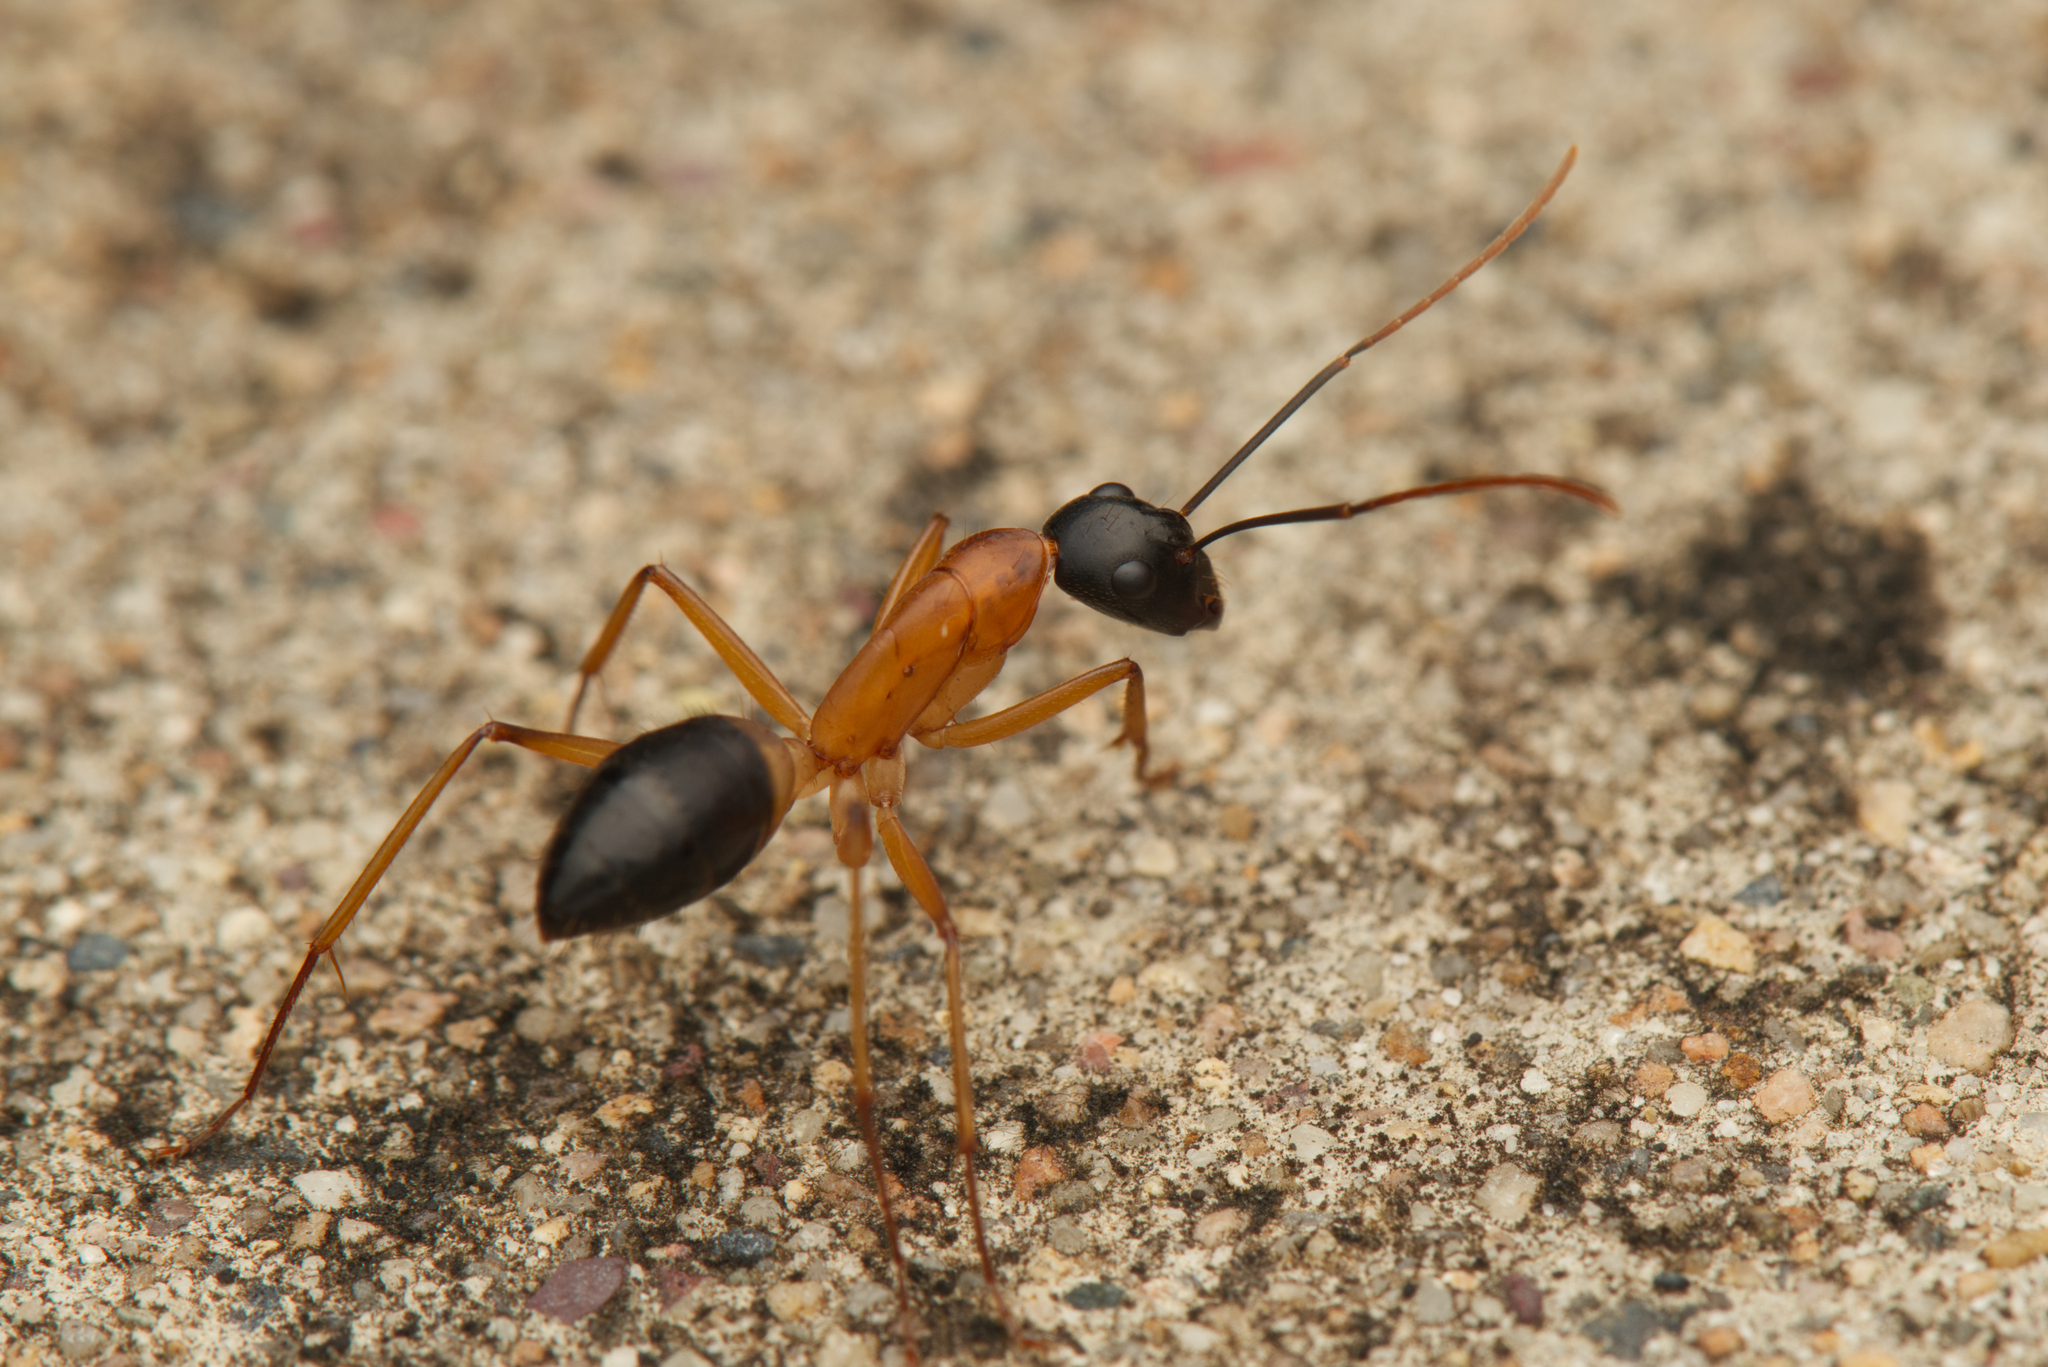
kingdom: Animalia
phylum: Arthropoda
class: Insecta
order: Hymenoptera
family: Formicidae
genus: Camponotus
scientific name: Camponotus consobrinus
